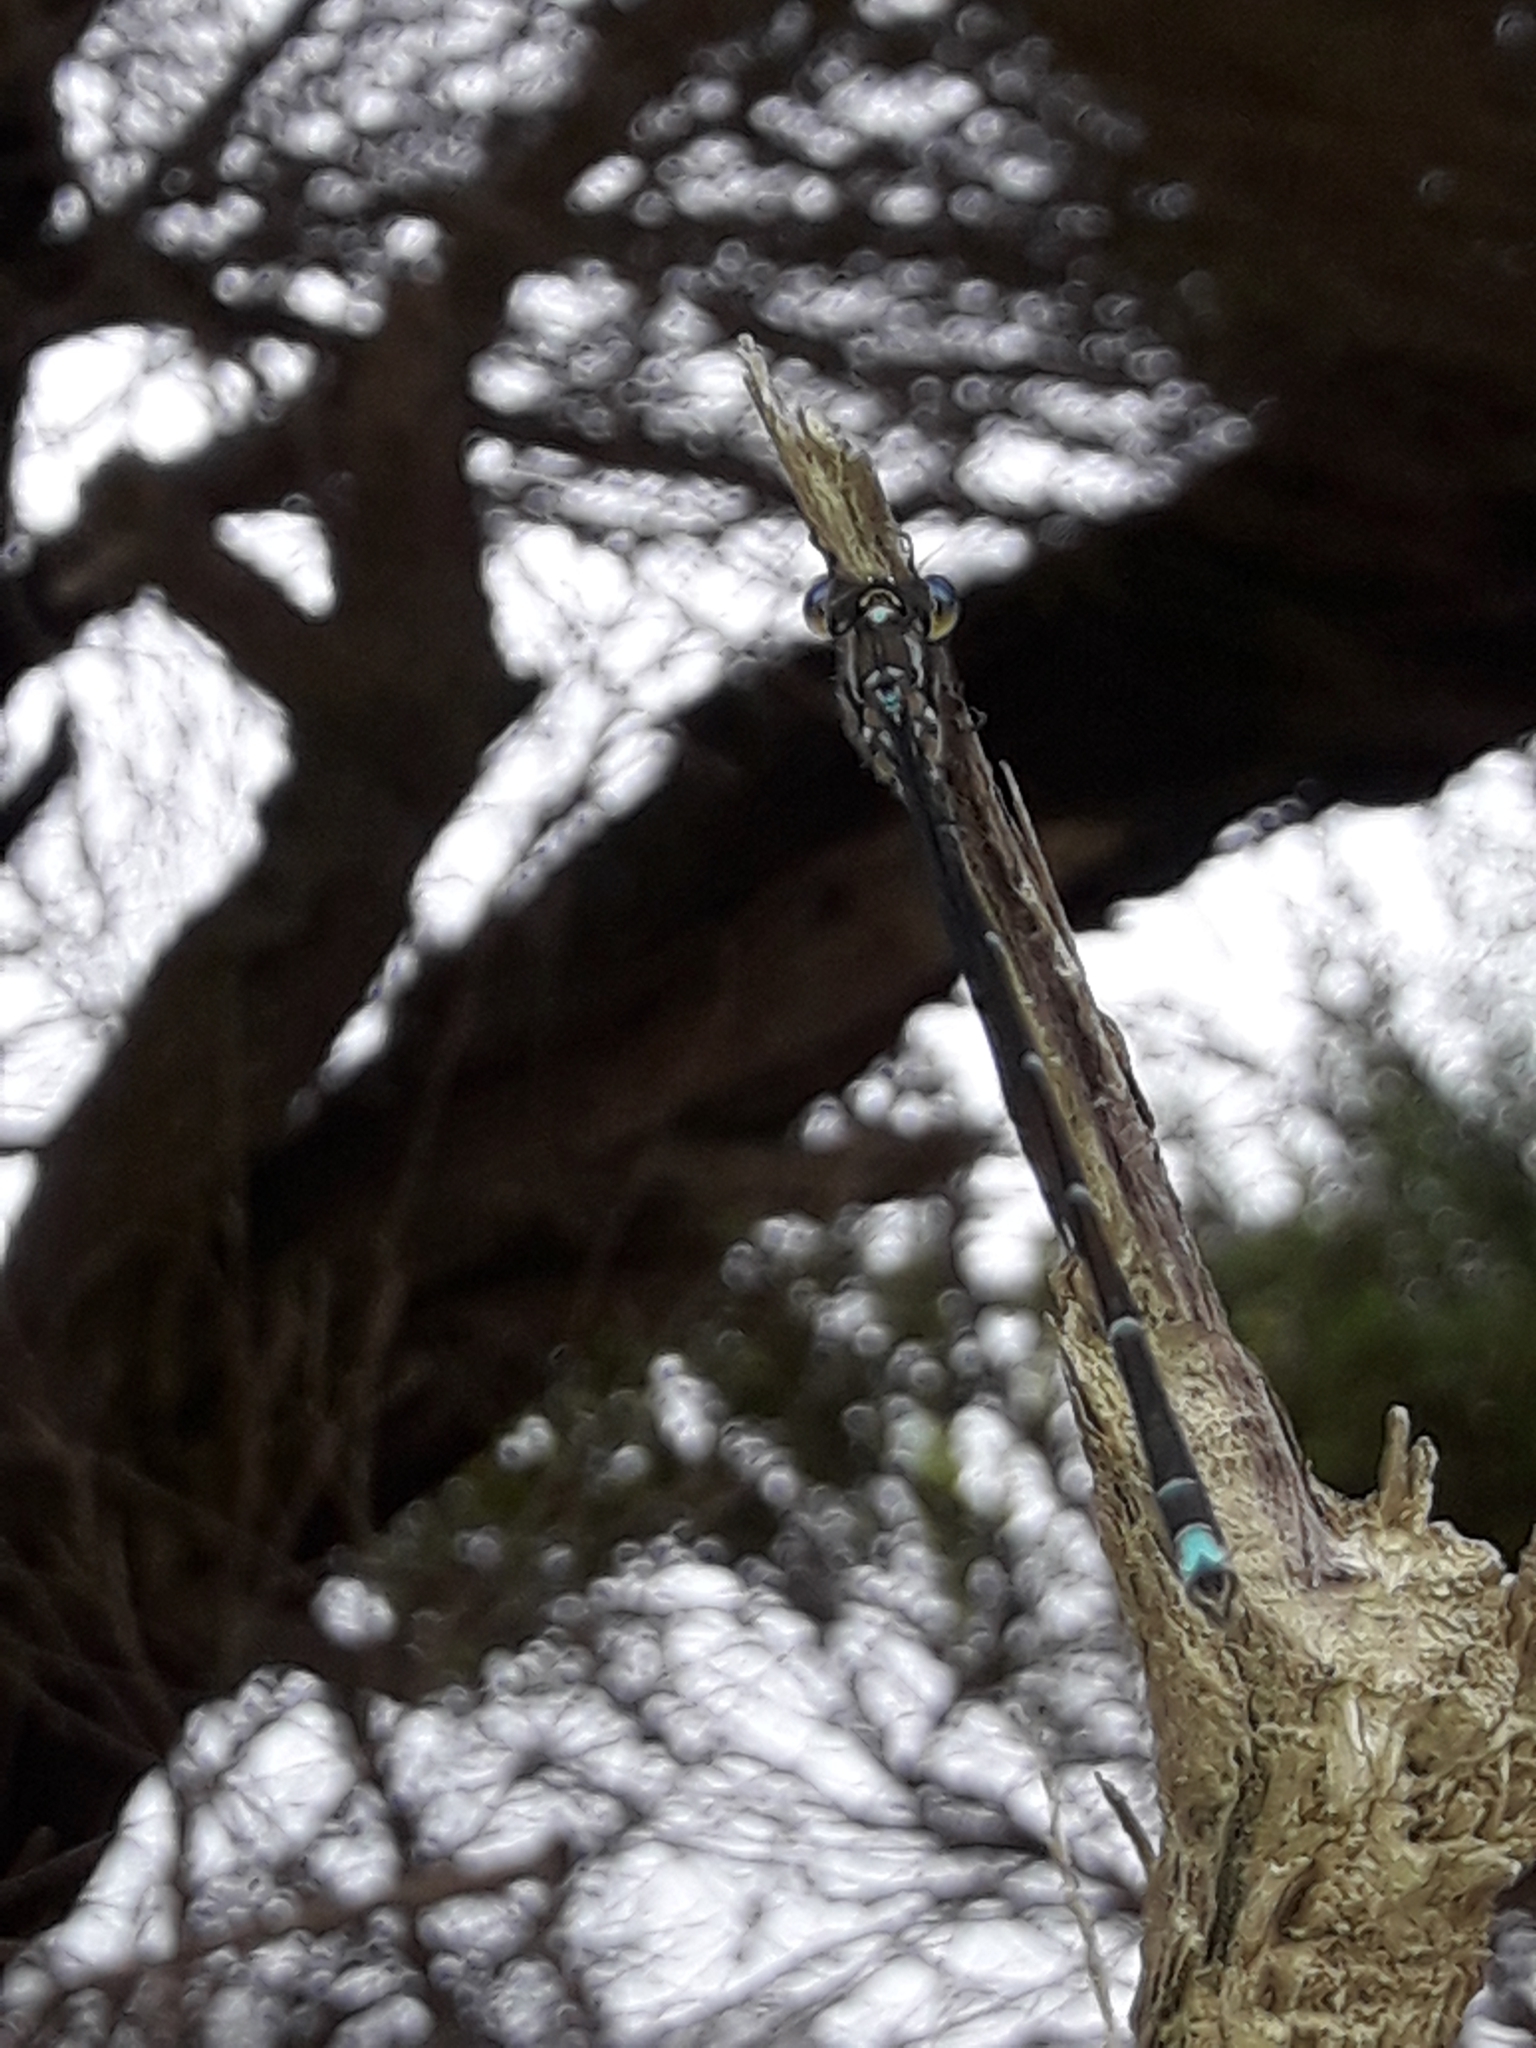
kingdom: Animalia
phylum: Arthropoda
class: Insecta
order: Odonata
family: Lestidae
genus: Austrolestes
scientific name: Austrolestes colensonis
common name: Blue damselfly
